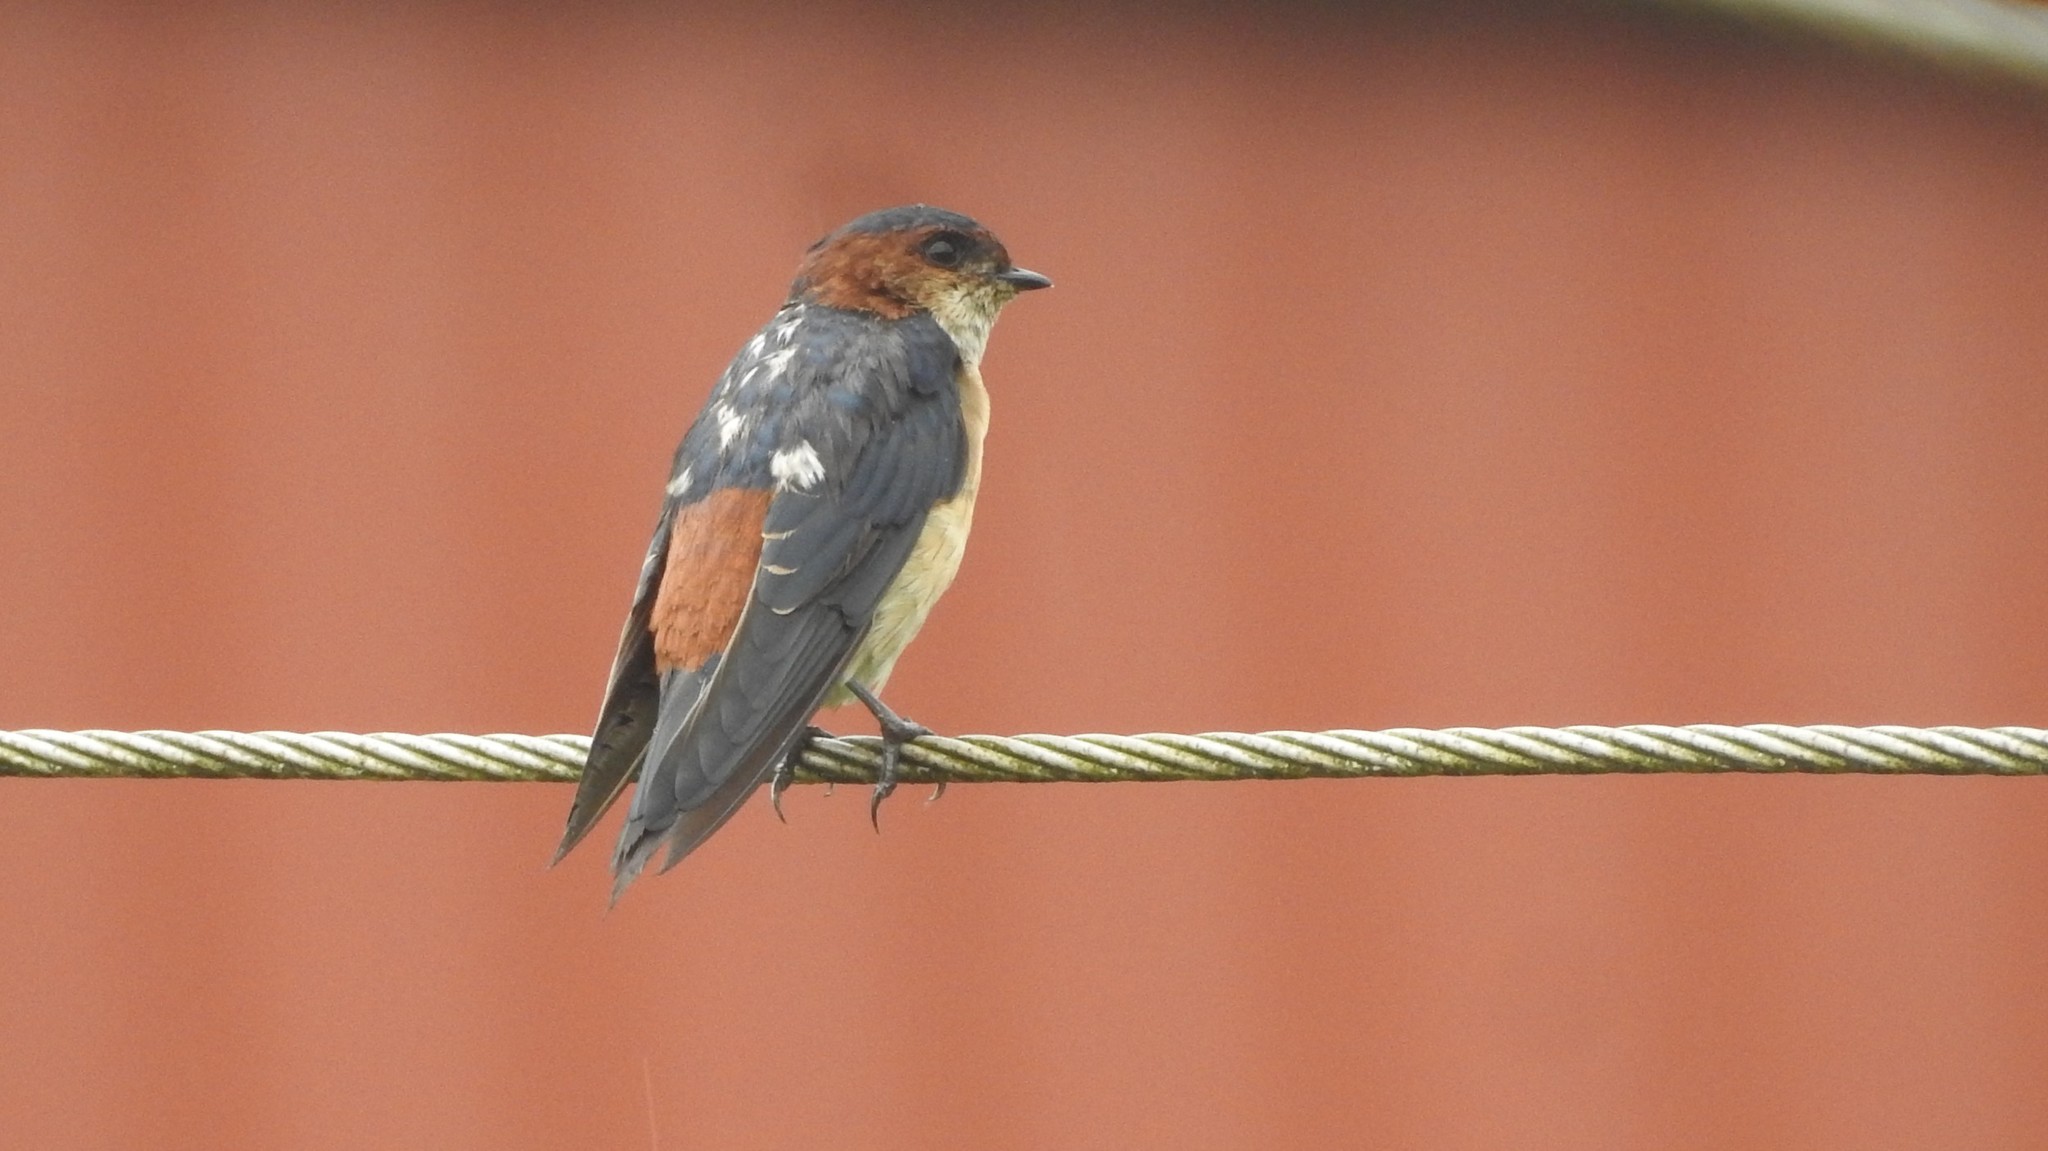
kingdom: Animalia
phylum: Chordata
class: Aves
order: Passeriformes
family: Hirundinidae
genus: Cecropis
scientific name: Cecropis daurica
